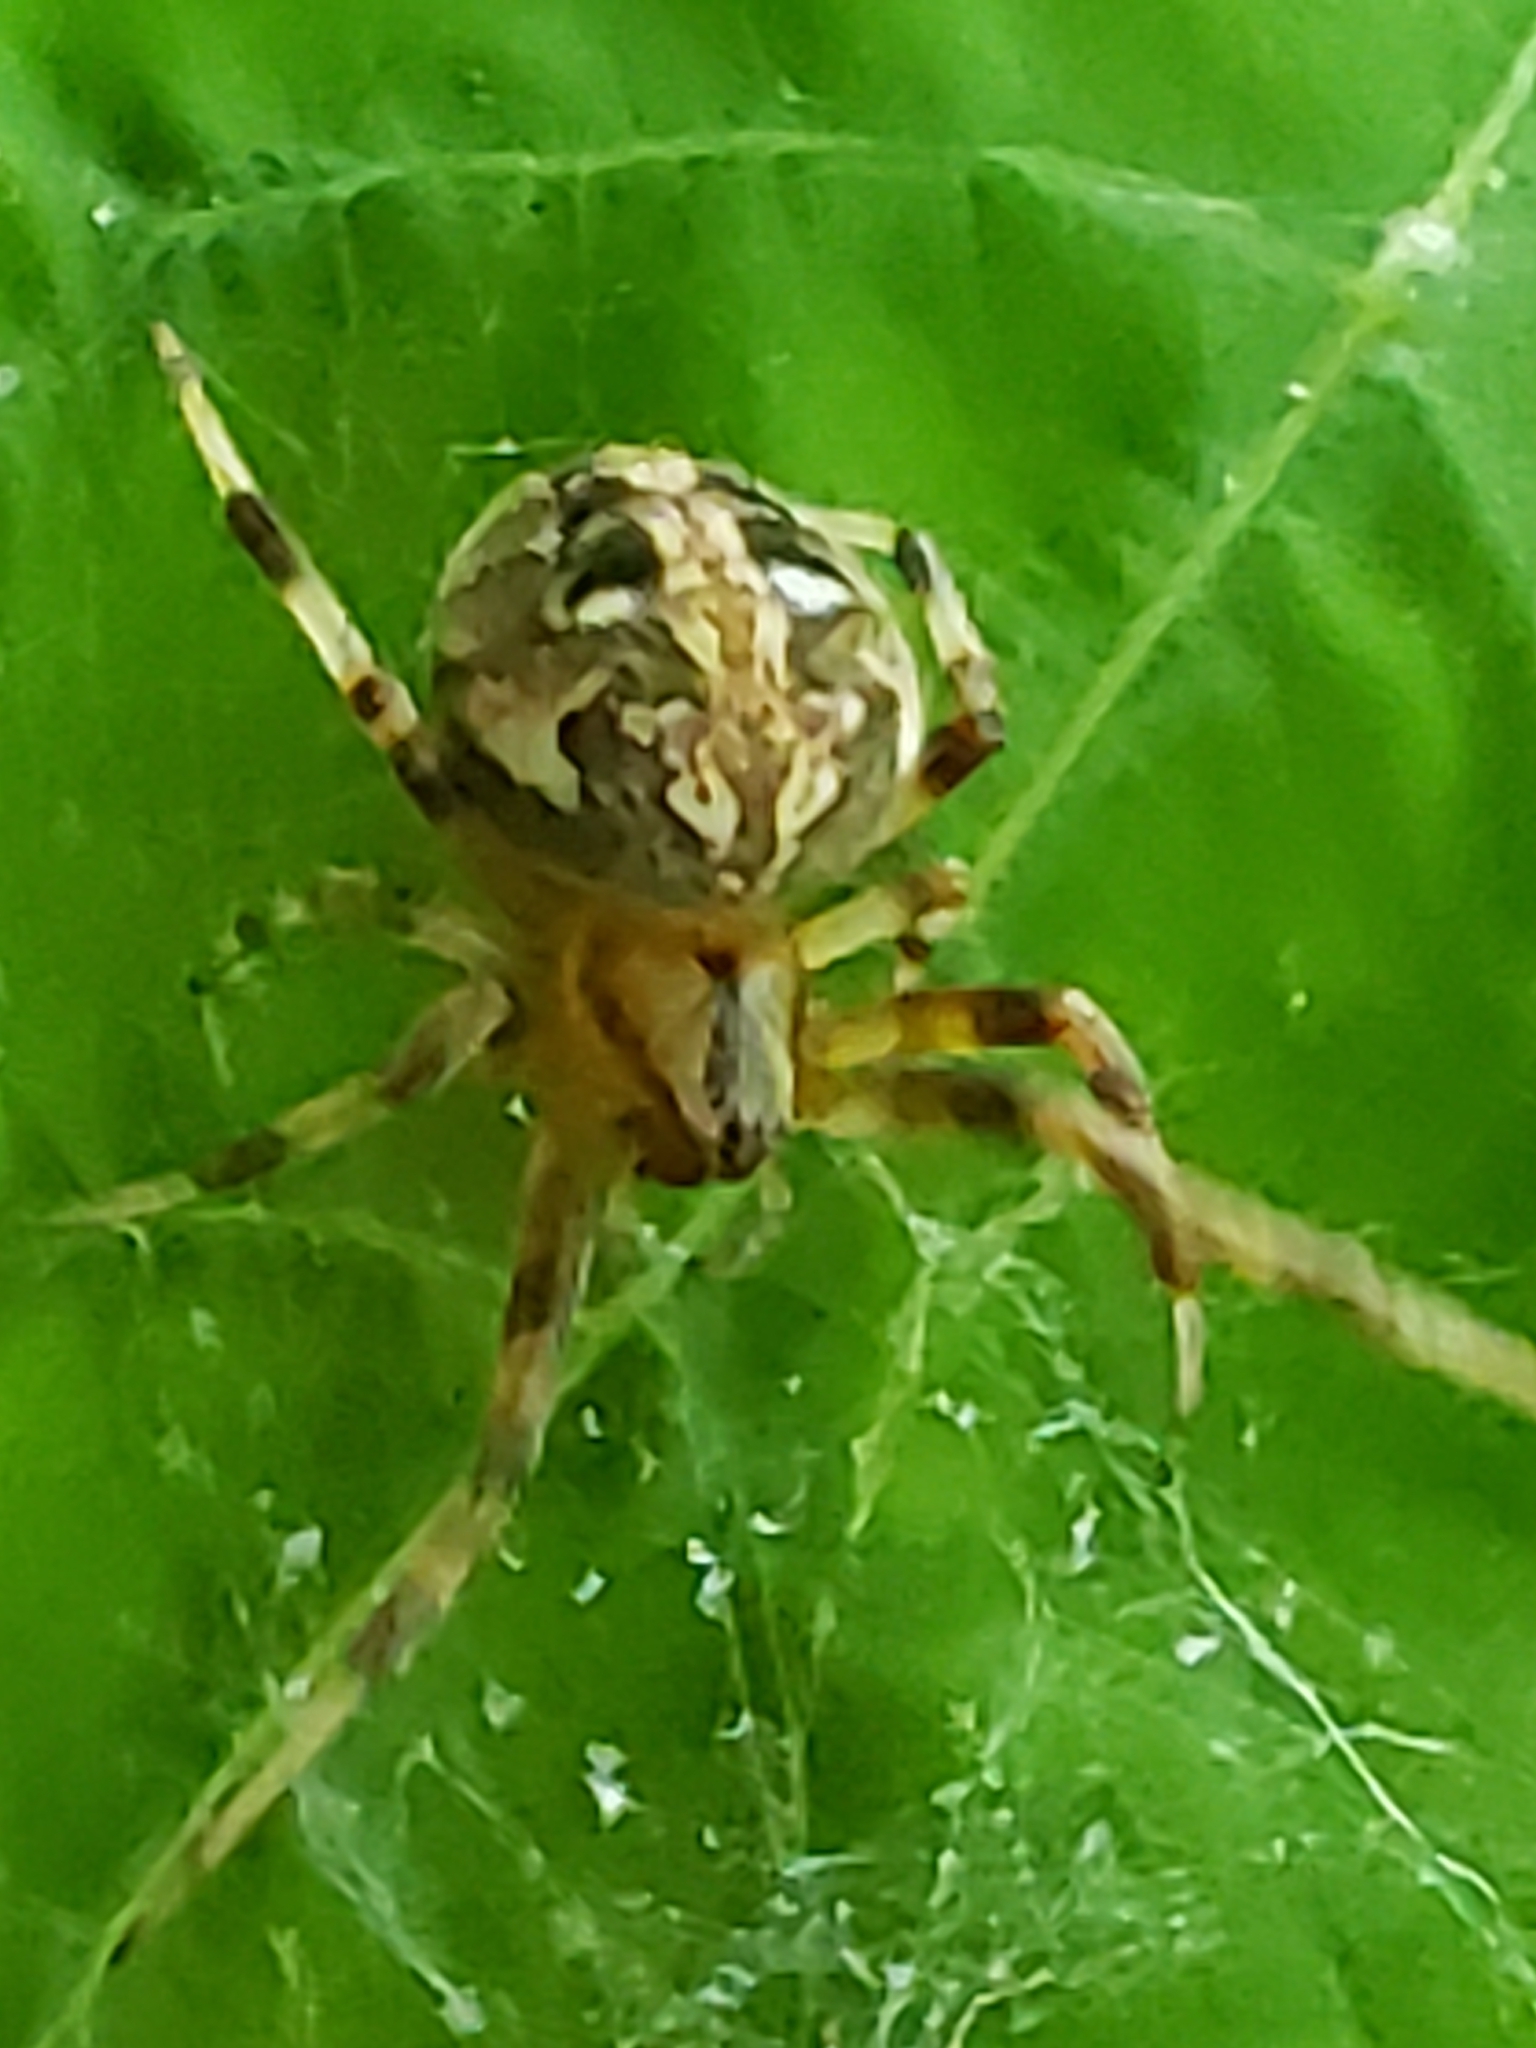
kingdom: Animalia
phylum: Arthropoda
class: Arachnida
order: Araneae
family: Araneidae
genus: Neoscona
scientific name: Neoscona arabesca
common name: Orb weavers
